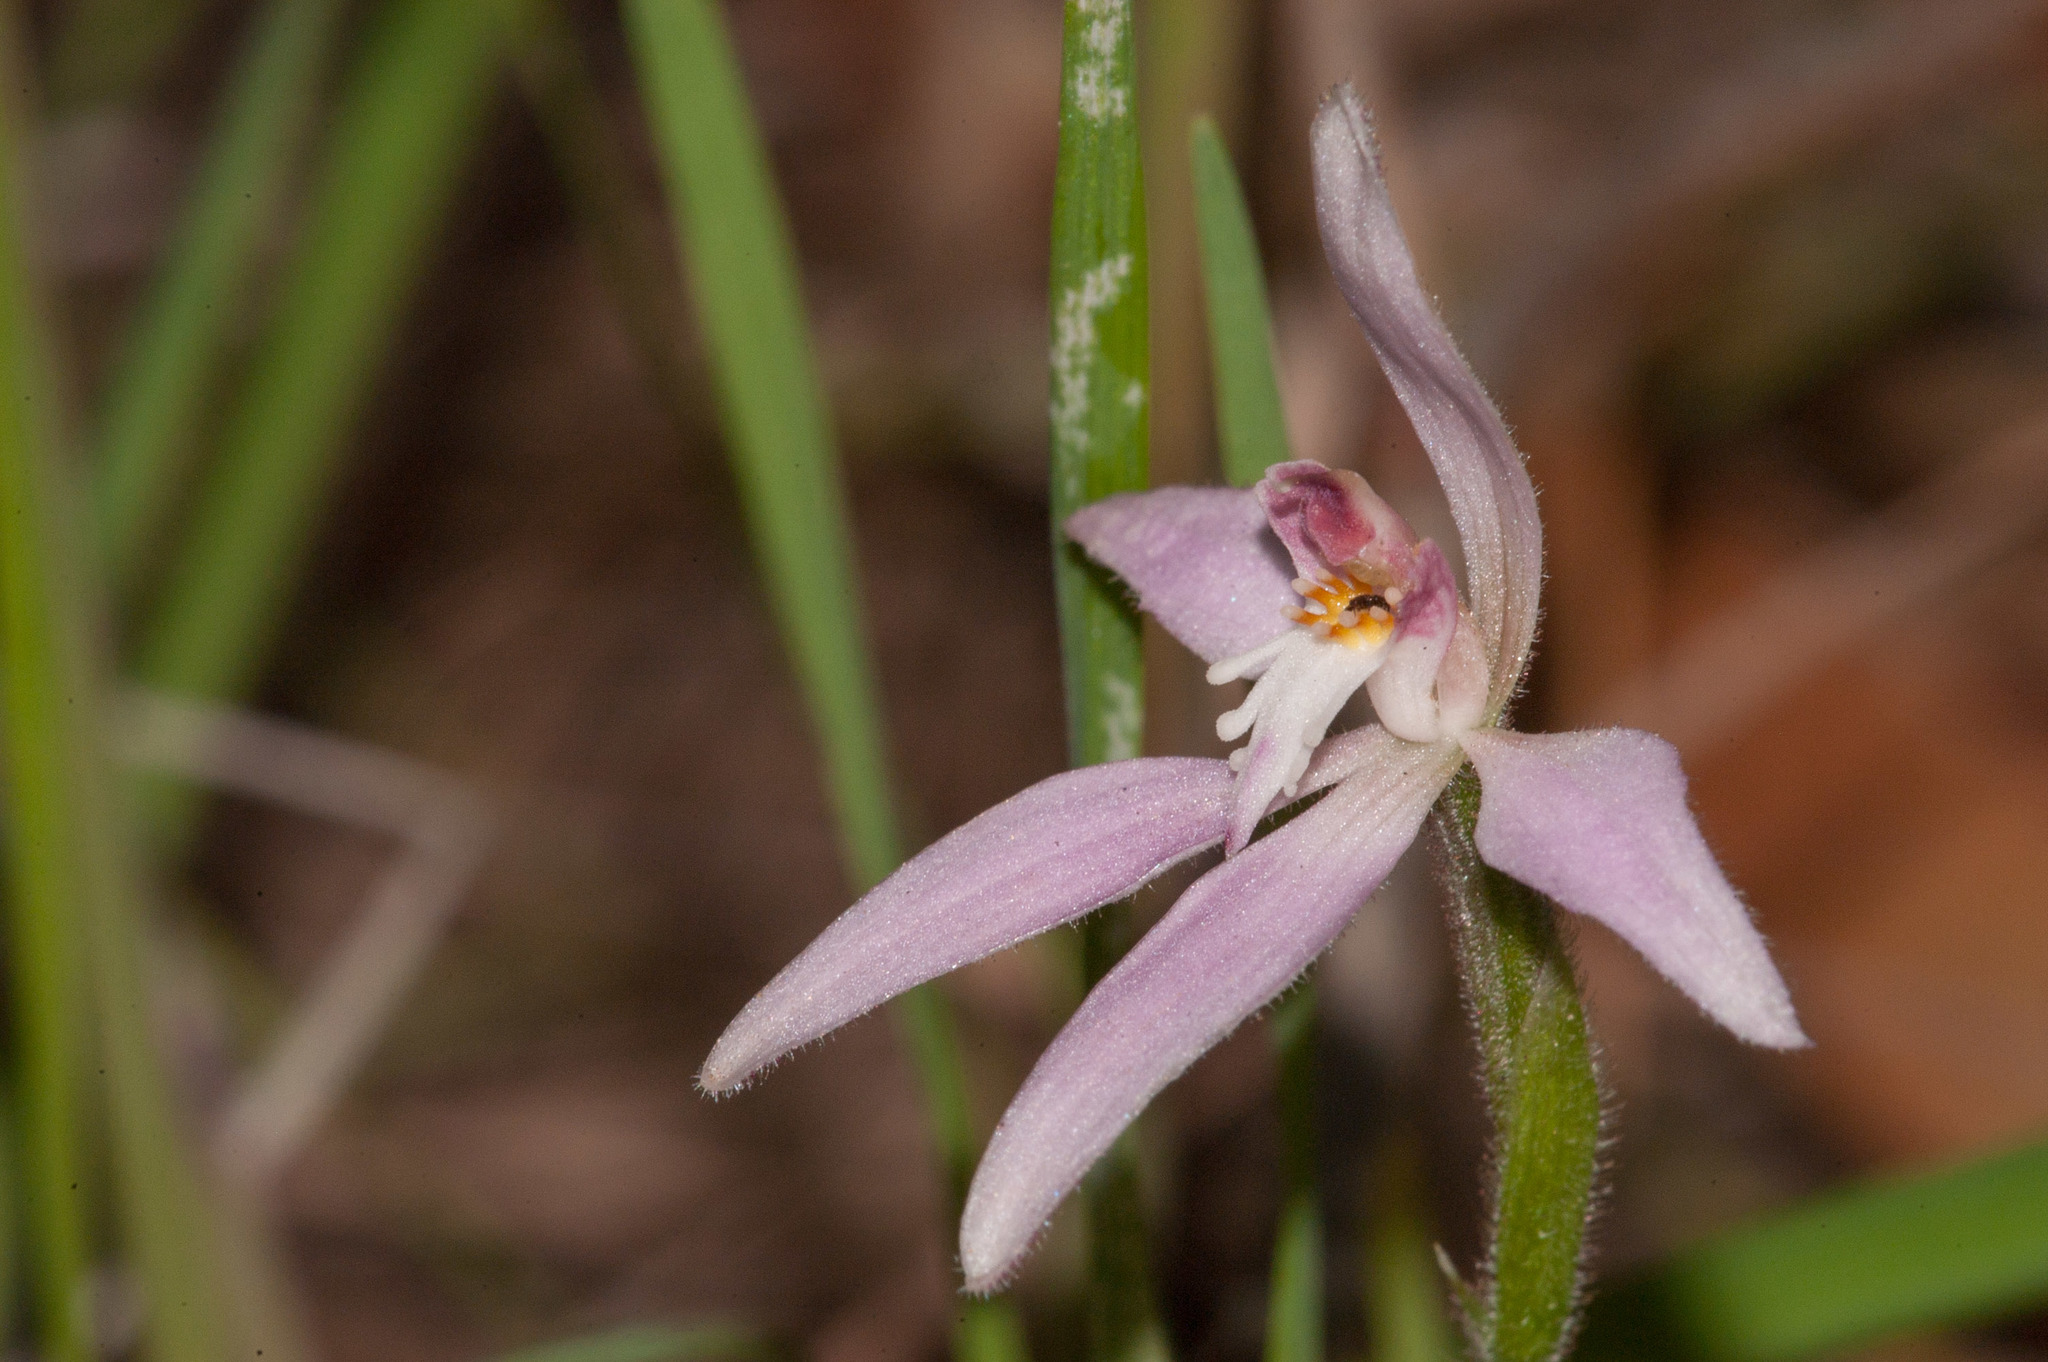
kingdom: Plantae
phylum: Tracheophyta
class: Liliopsida
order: Asparagales
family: Orchidaceae
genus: Caladenia
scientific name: Caladenia latifolia
